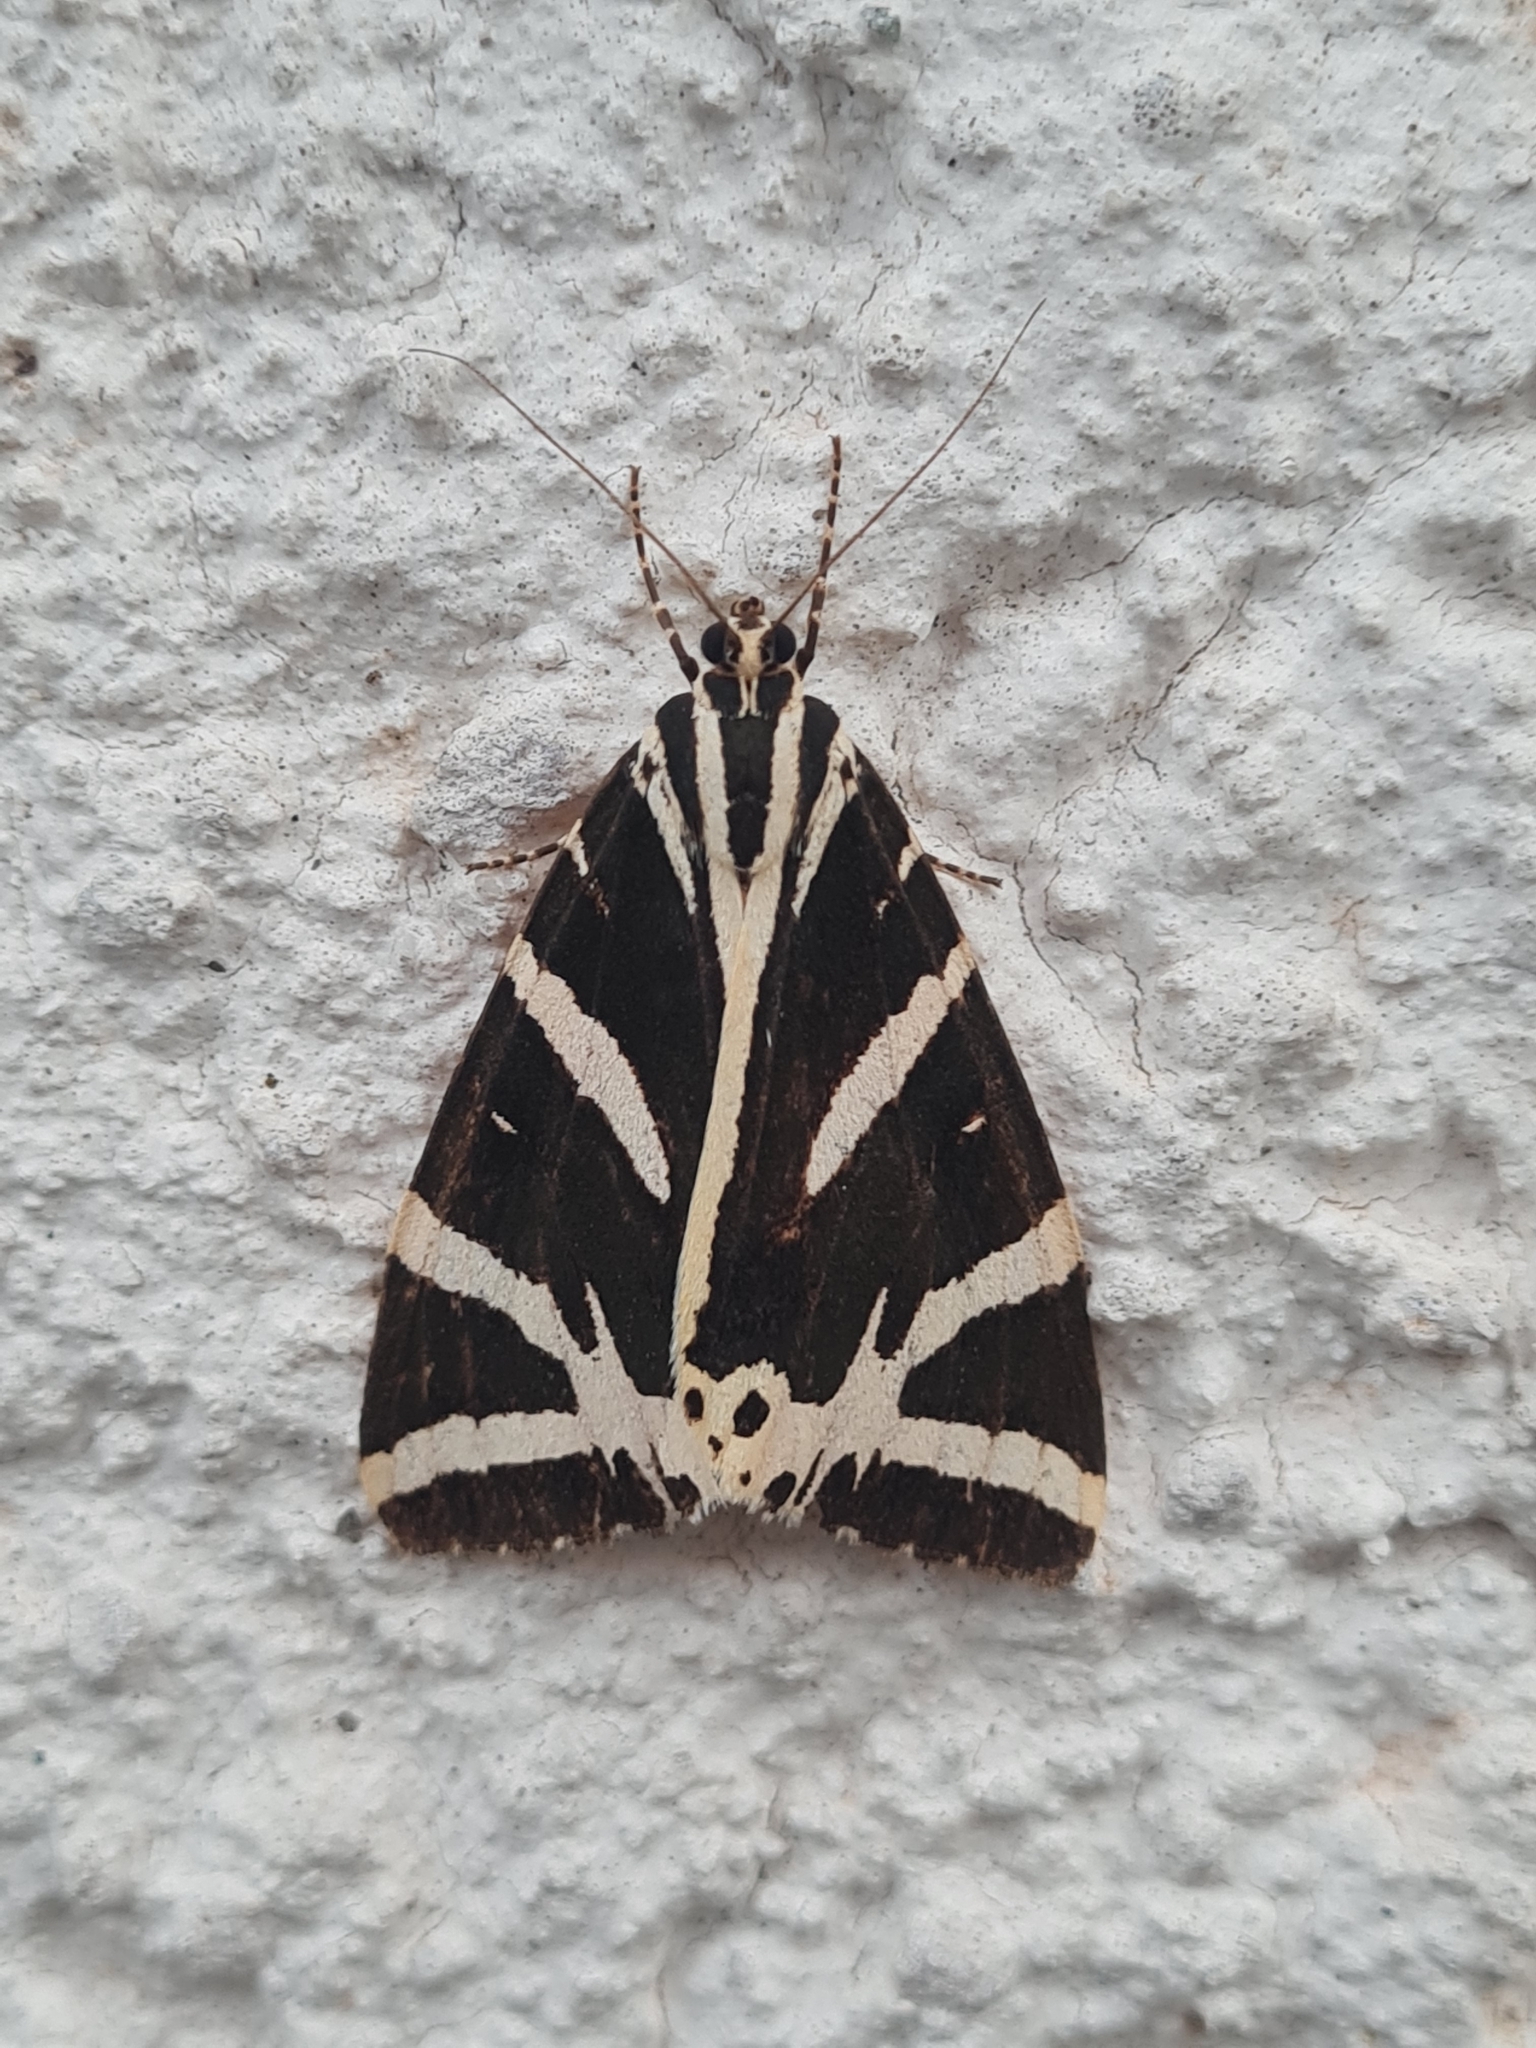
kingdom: Animalia
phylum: Arthropoda
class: Insecta
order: Lepidoptera
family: Erebidae
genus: Euplagia
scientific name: Euplagia quadripunctaria
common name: Jersey tiger
